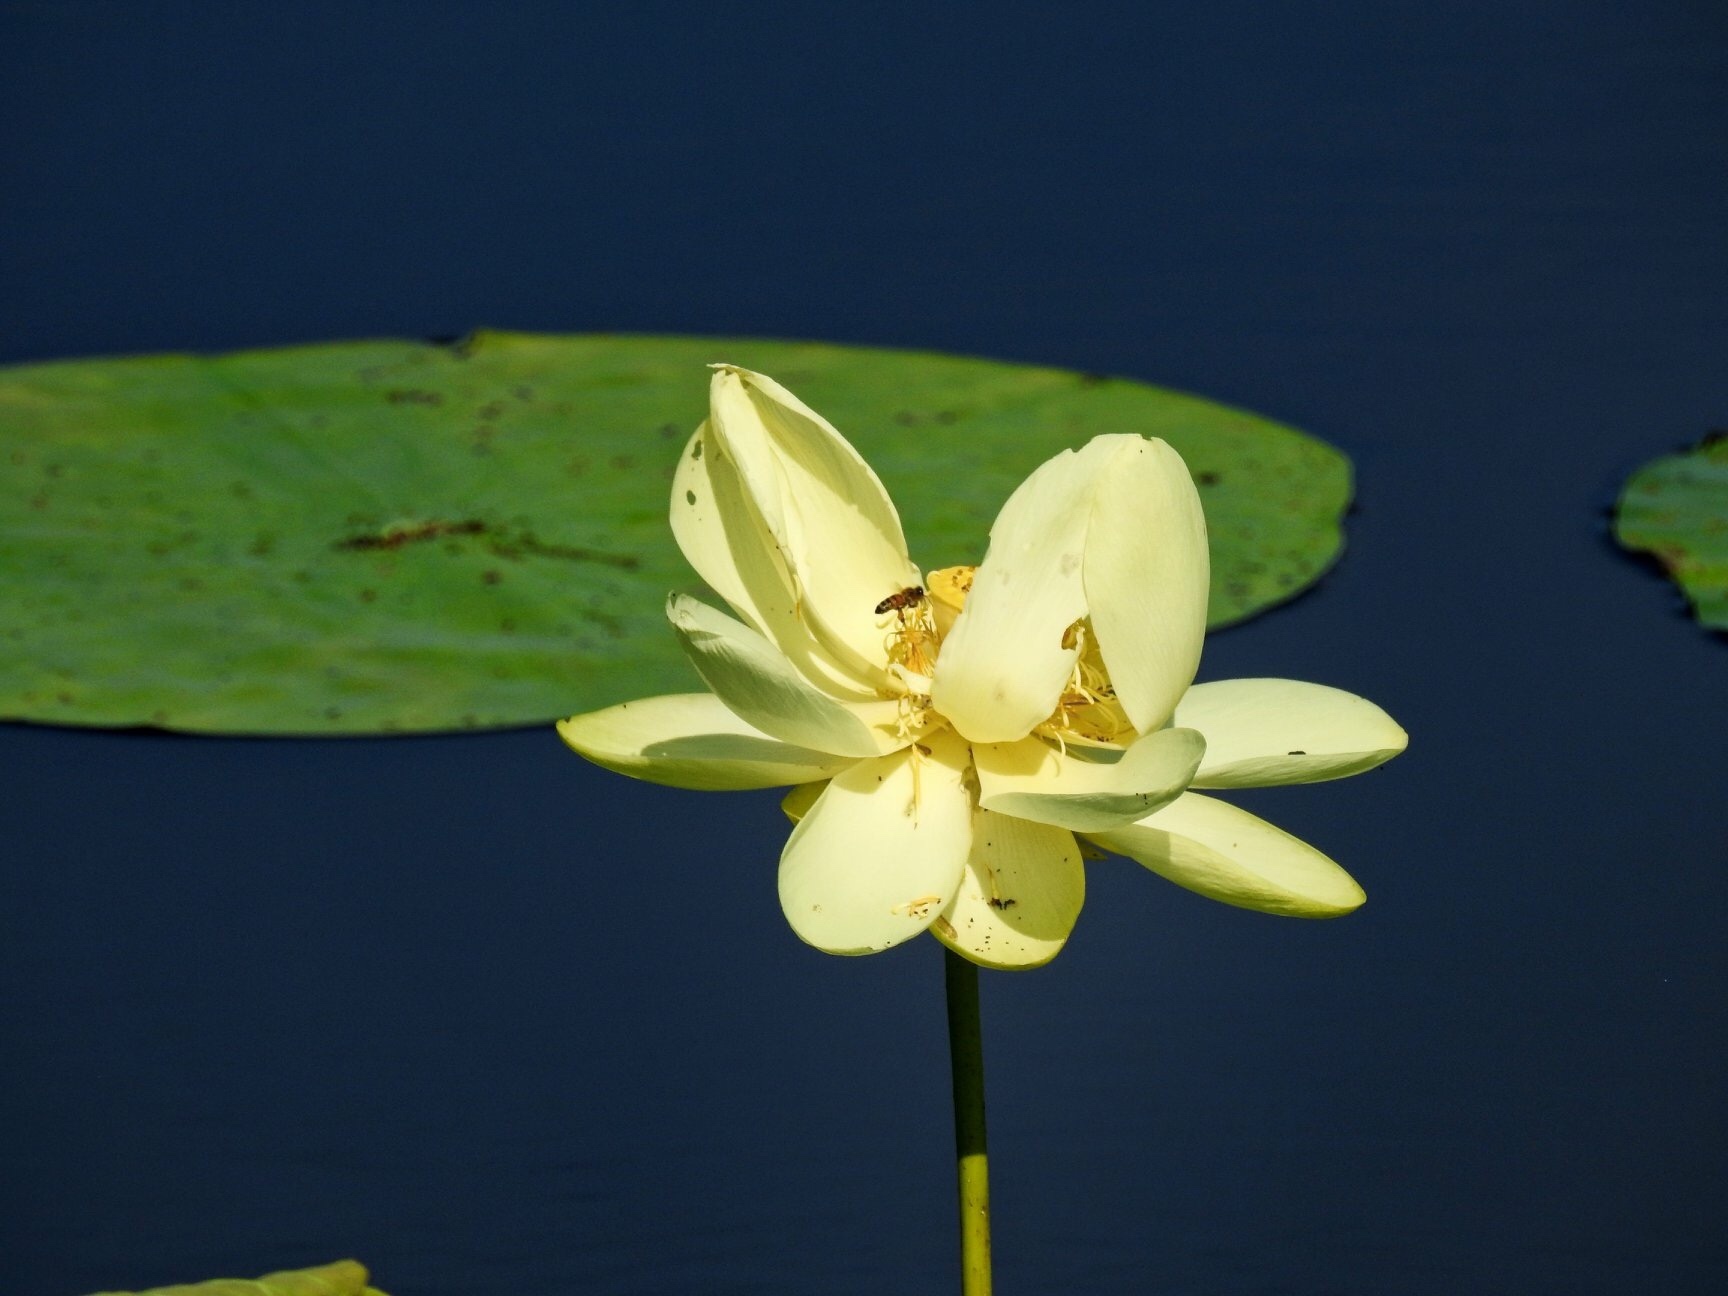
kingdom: Plantae
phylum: Tracheophyta
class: Magnoliopsida
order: Proteales
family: Nelumbonaceae
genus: Nelumbo
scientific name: Nelumbo lutea
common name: American lotus
